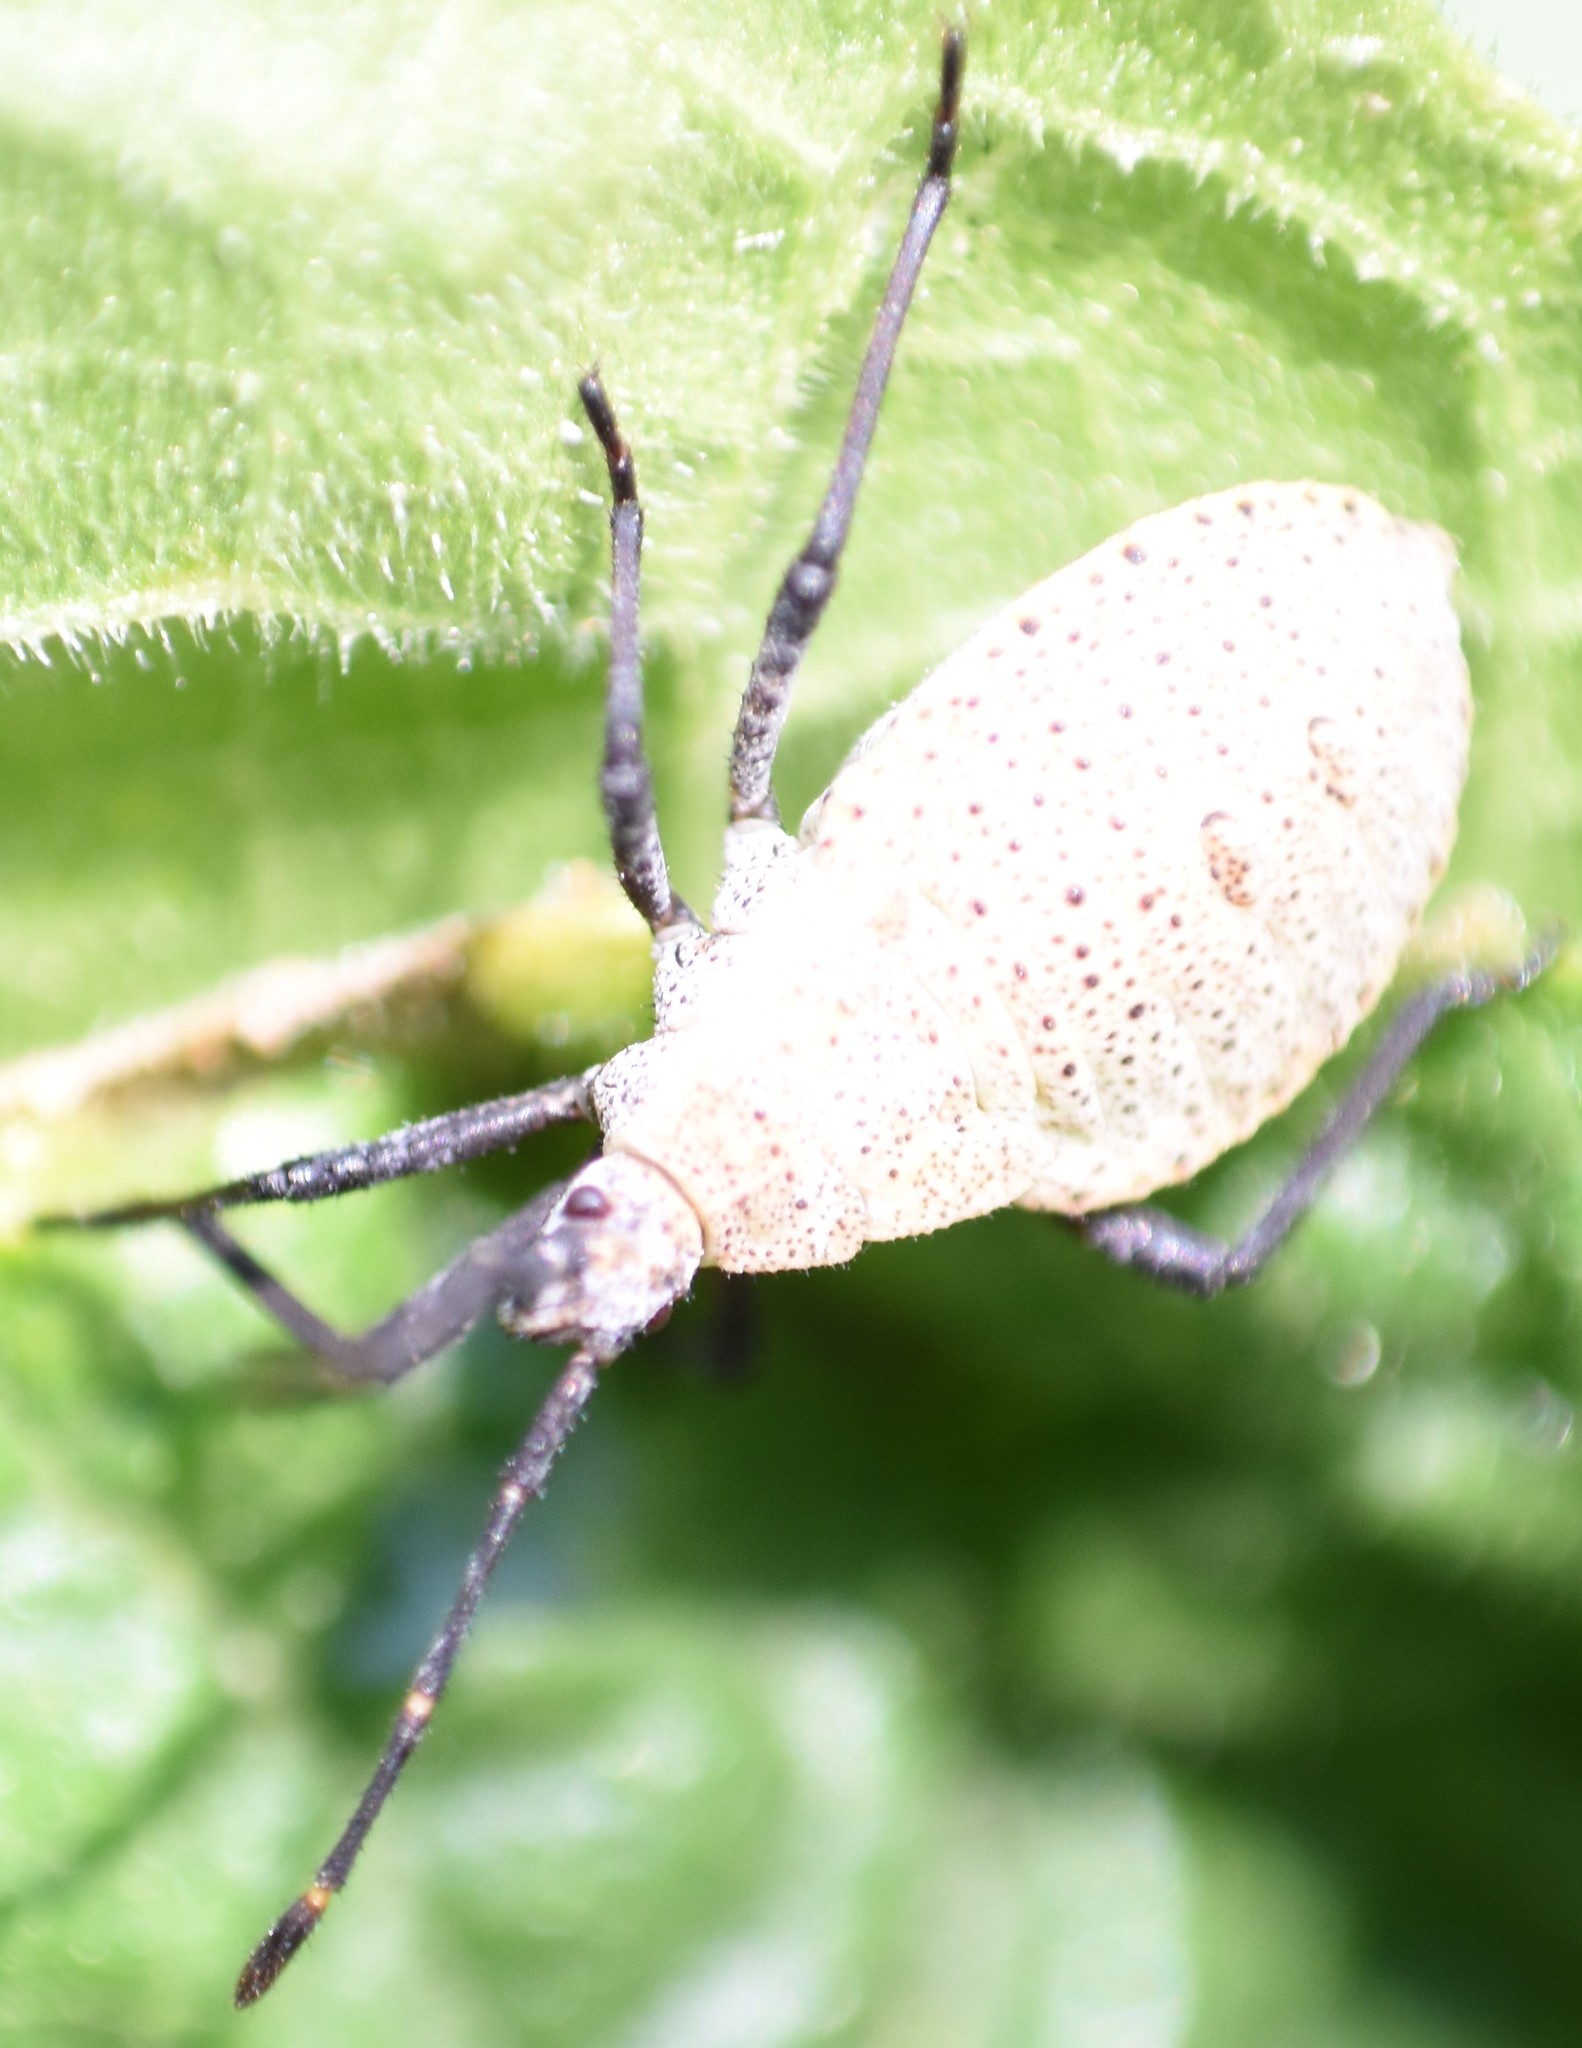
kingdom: Animalia
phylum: Arthropoda
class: Insecta
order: Hemiptera
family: Coreidae
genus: Anasa
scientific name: Anasa tristis
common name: Squash bug
